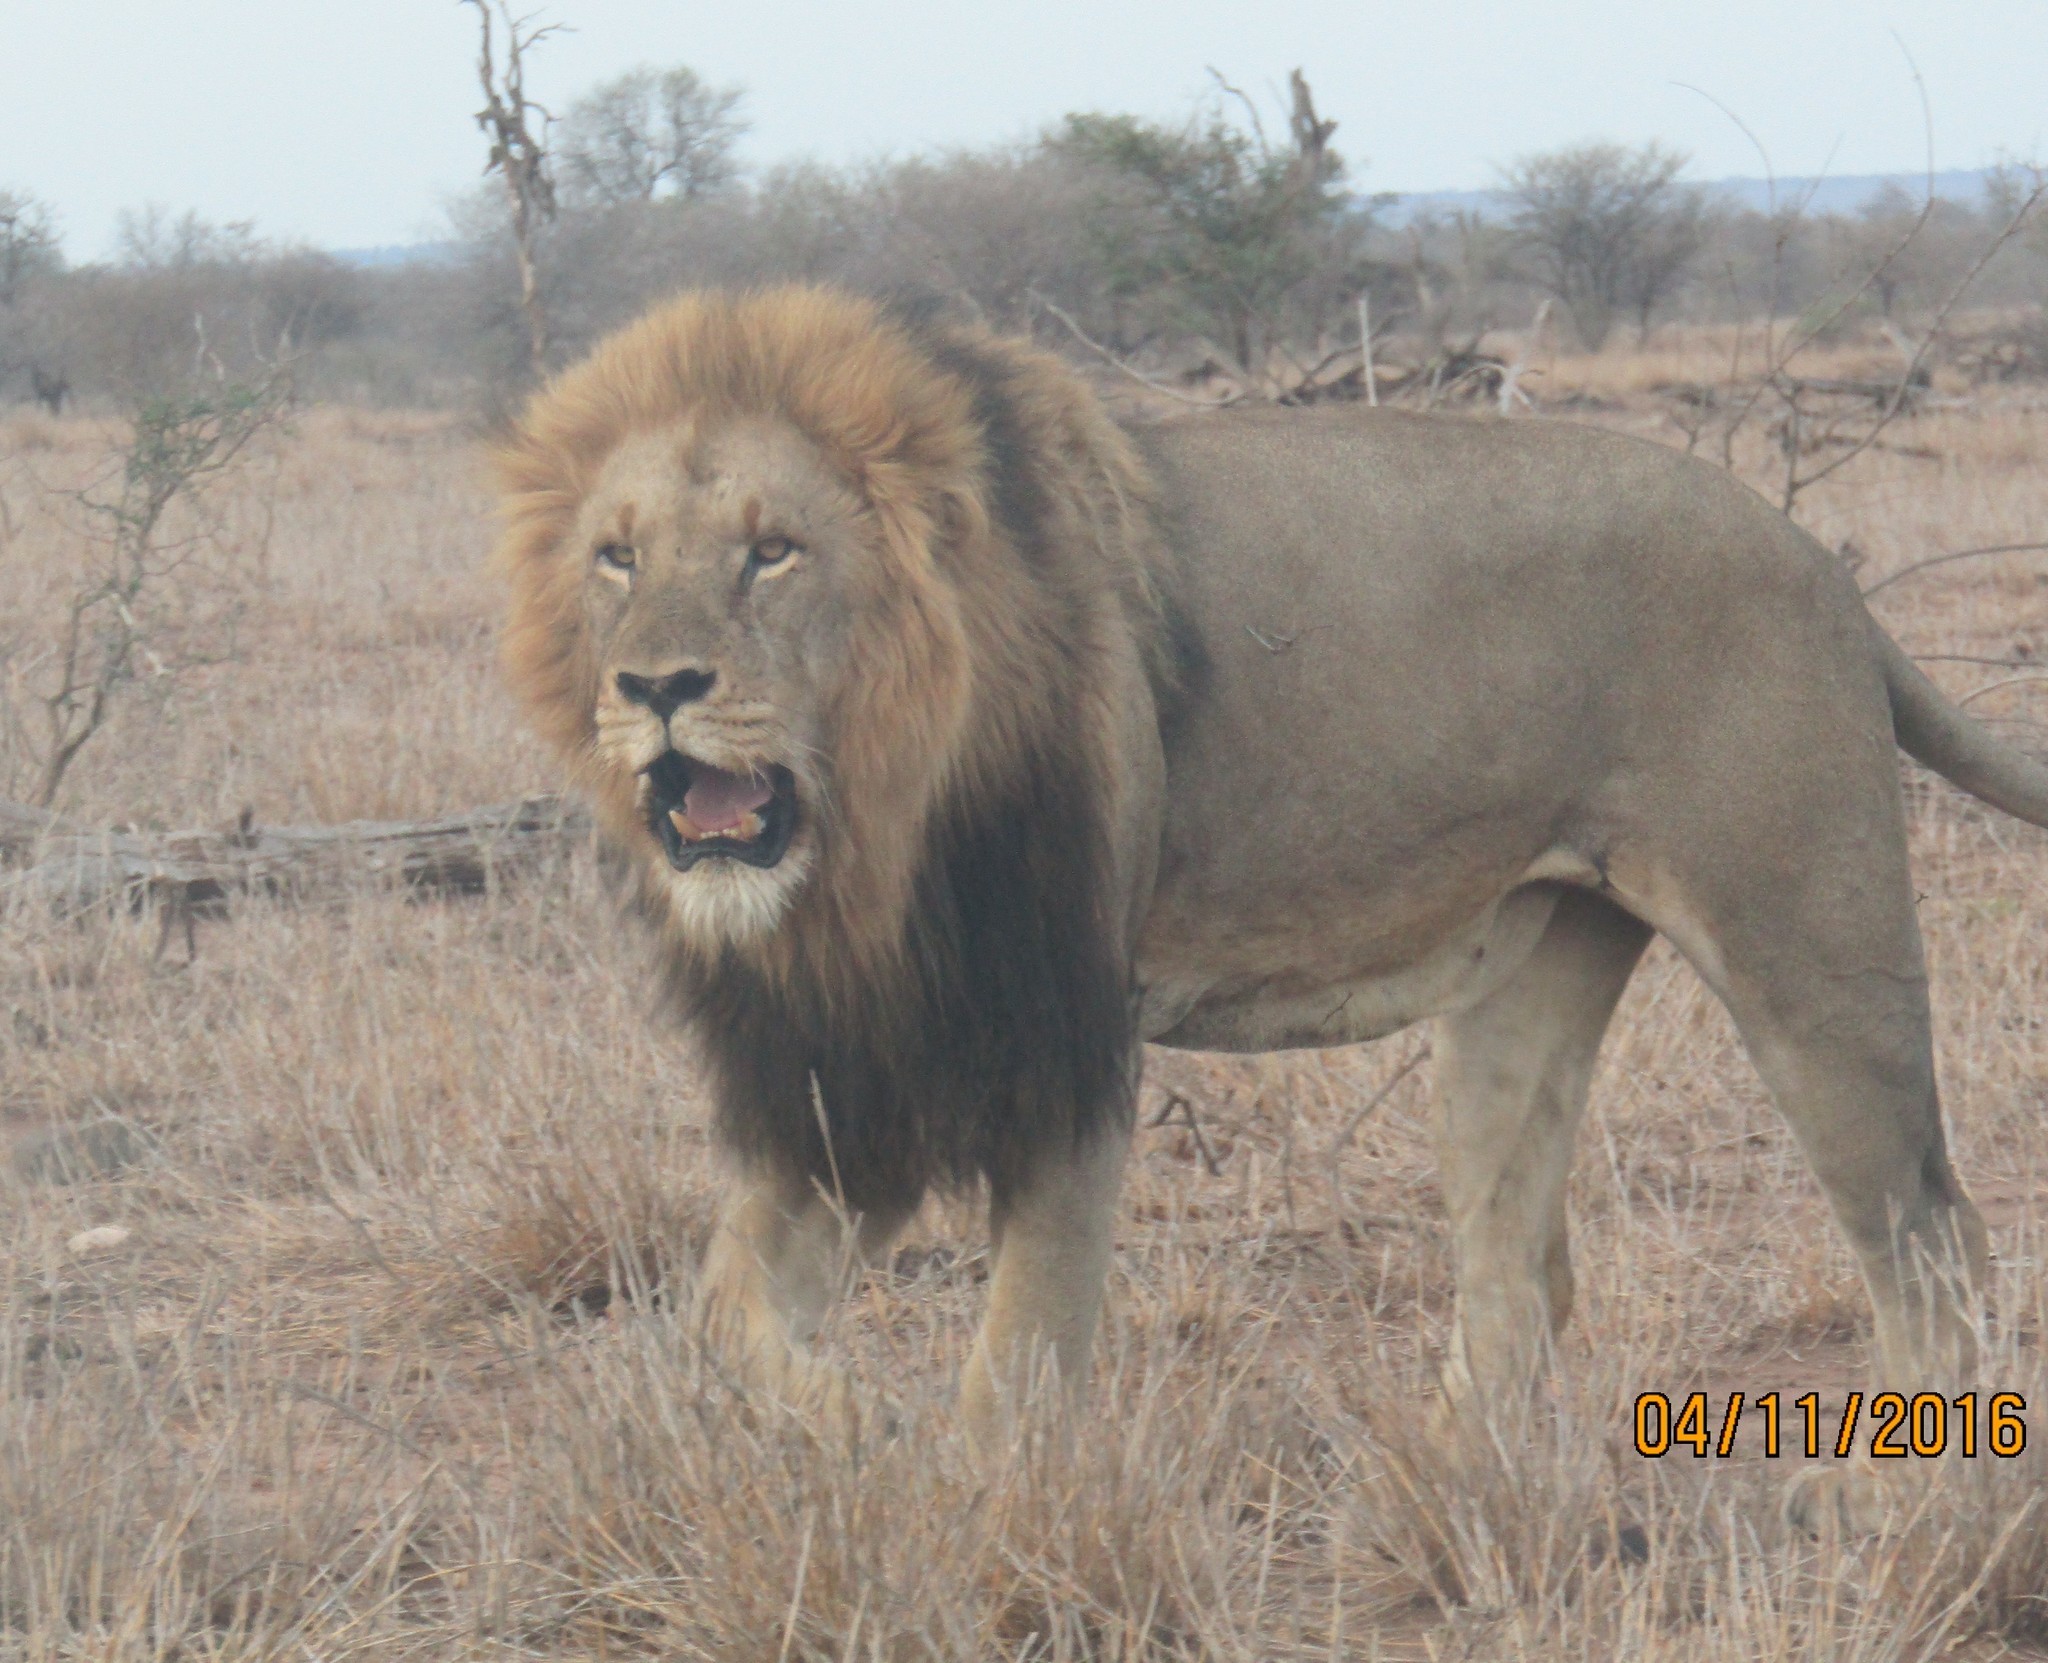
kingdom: Animalia
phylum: Chordata
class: Mammalia
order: Carnivora
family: Felidae
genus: Panthera
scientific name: Panthera leo
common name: Lion
